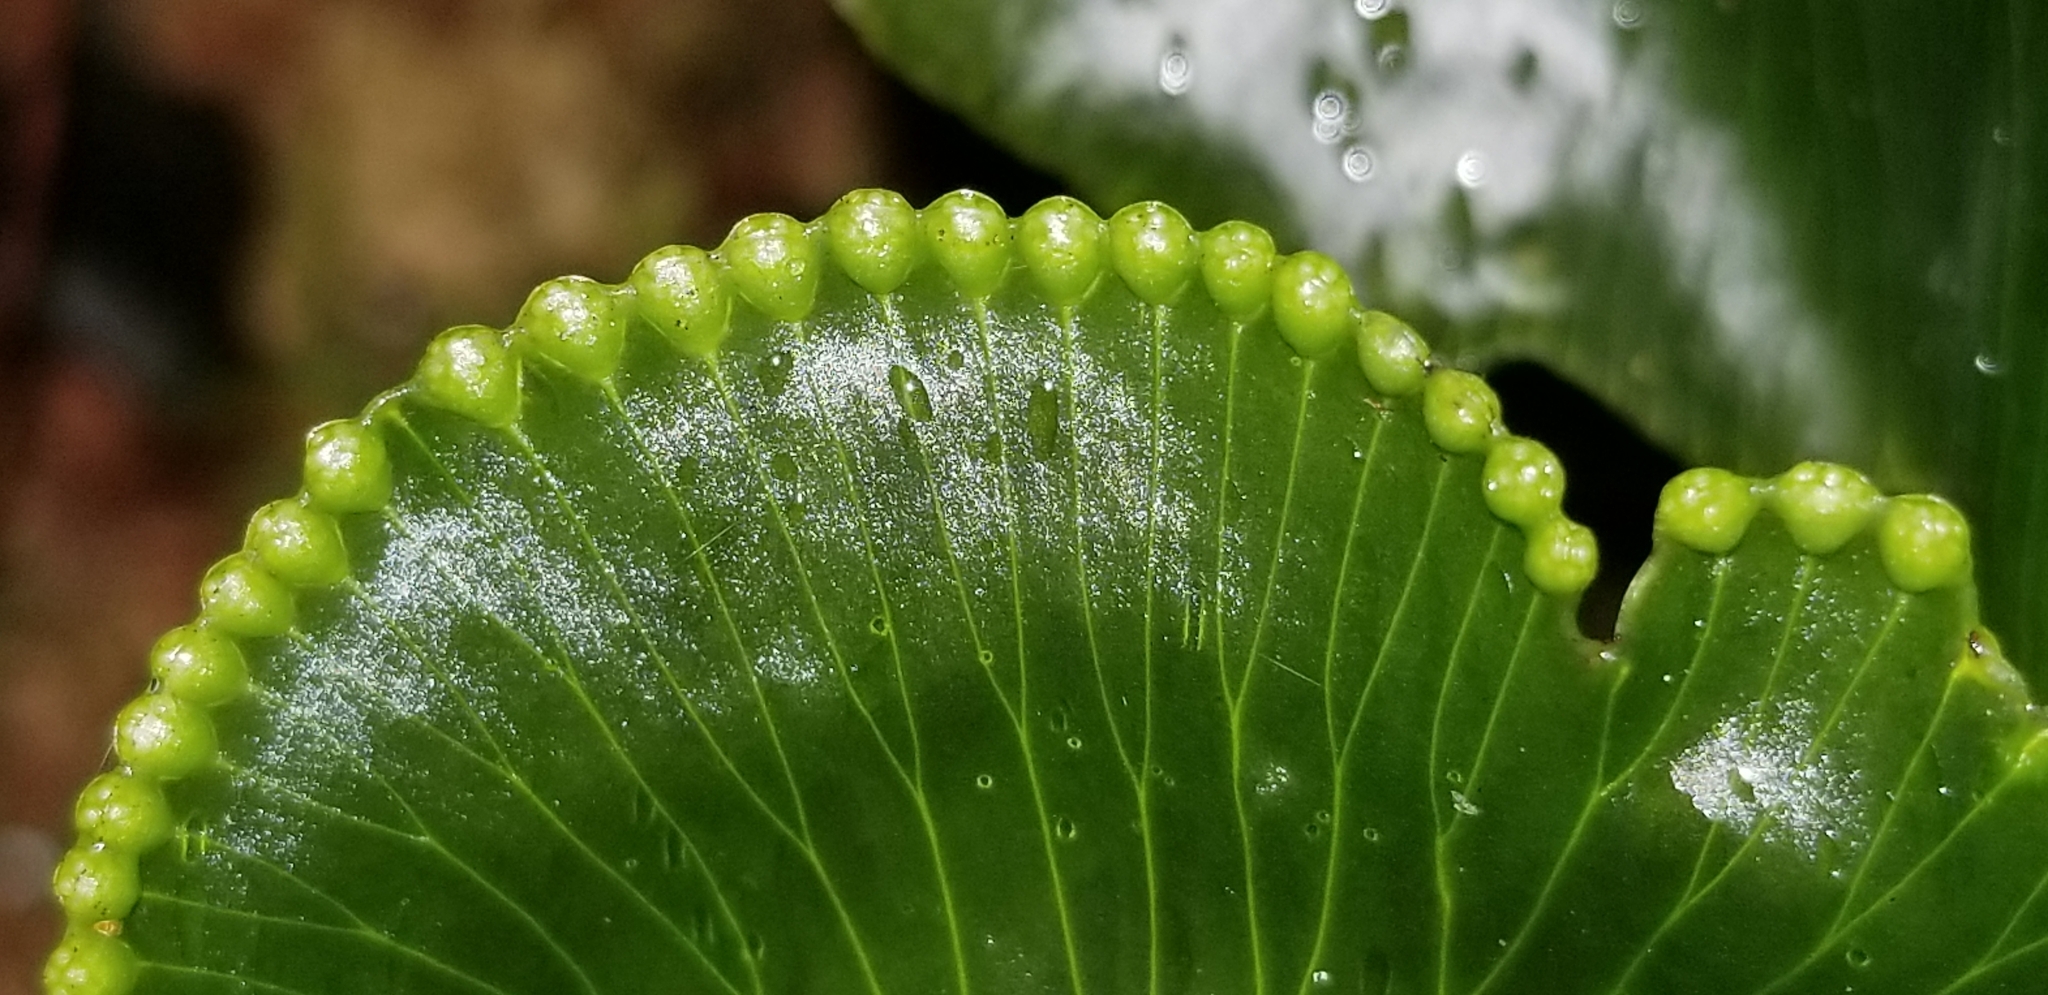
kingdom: Plantae
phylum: Tracheophyta
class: Polypodiopsida
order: Hymenophyllales
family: Hymenophyllaceae
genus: Hymenophyllum
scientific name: Hymenophyllum nephrophyllum
